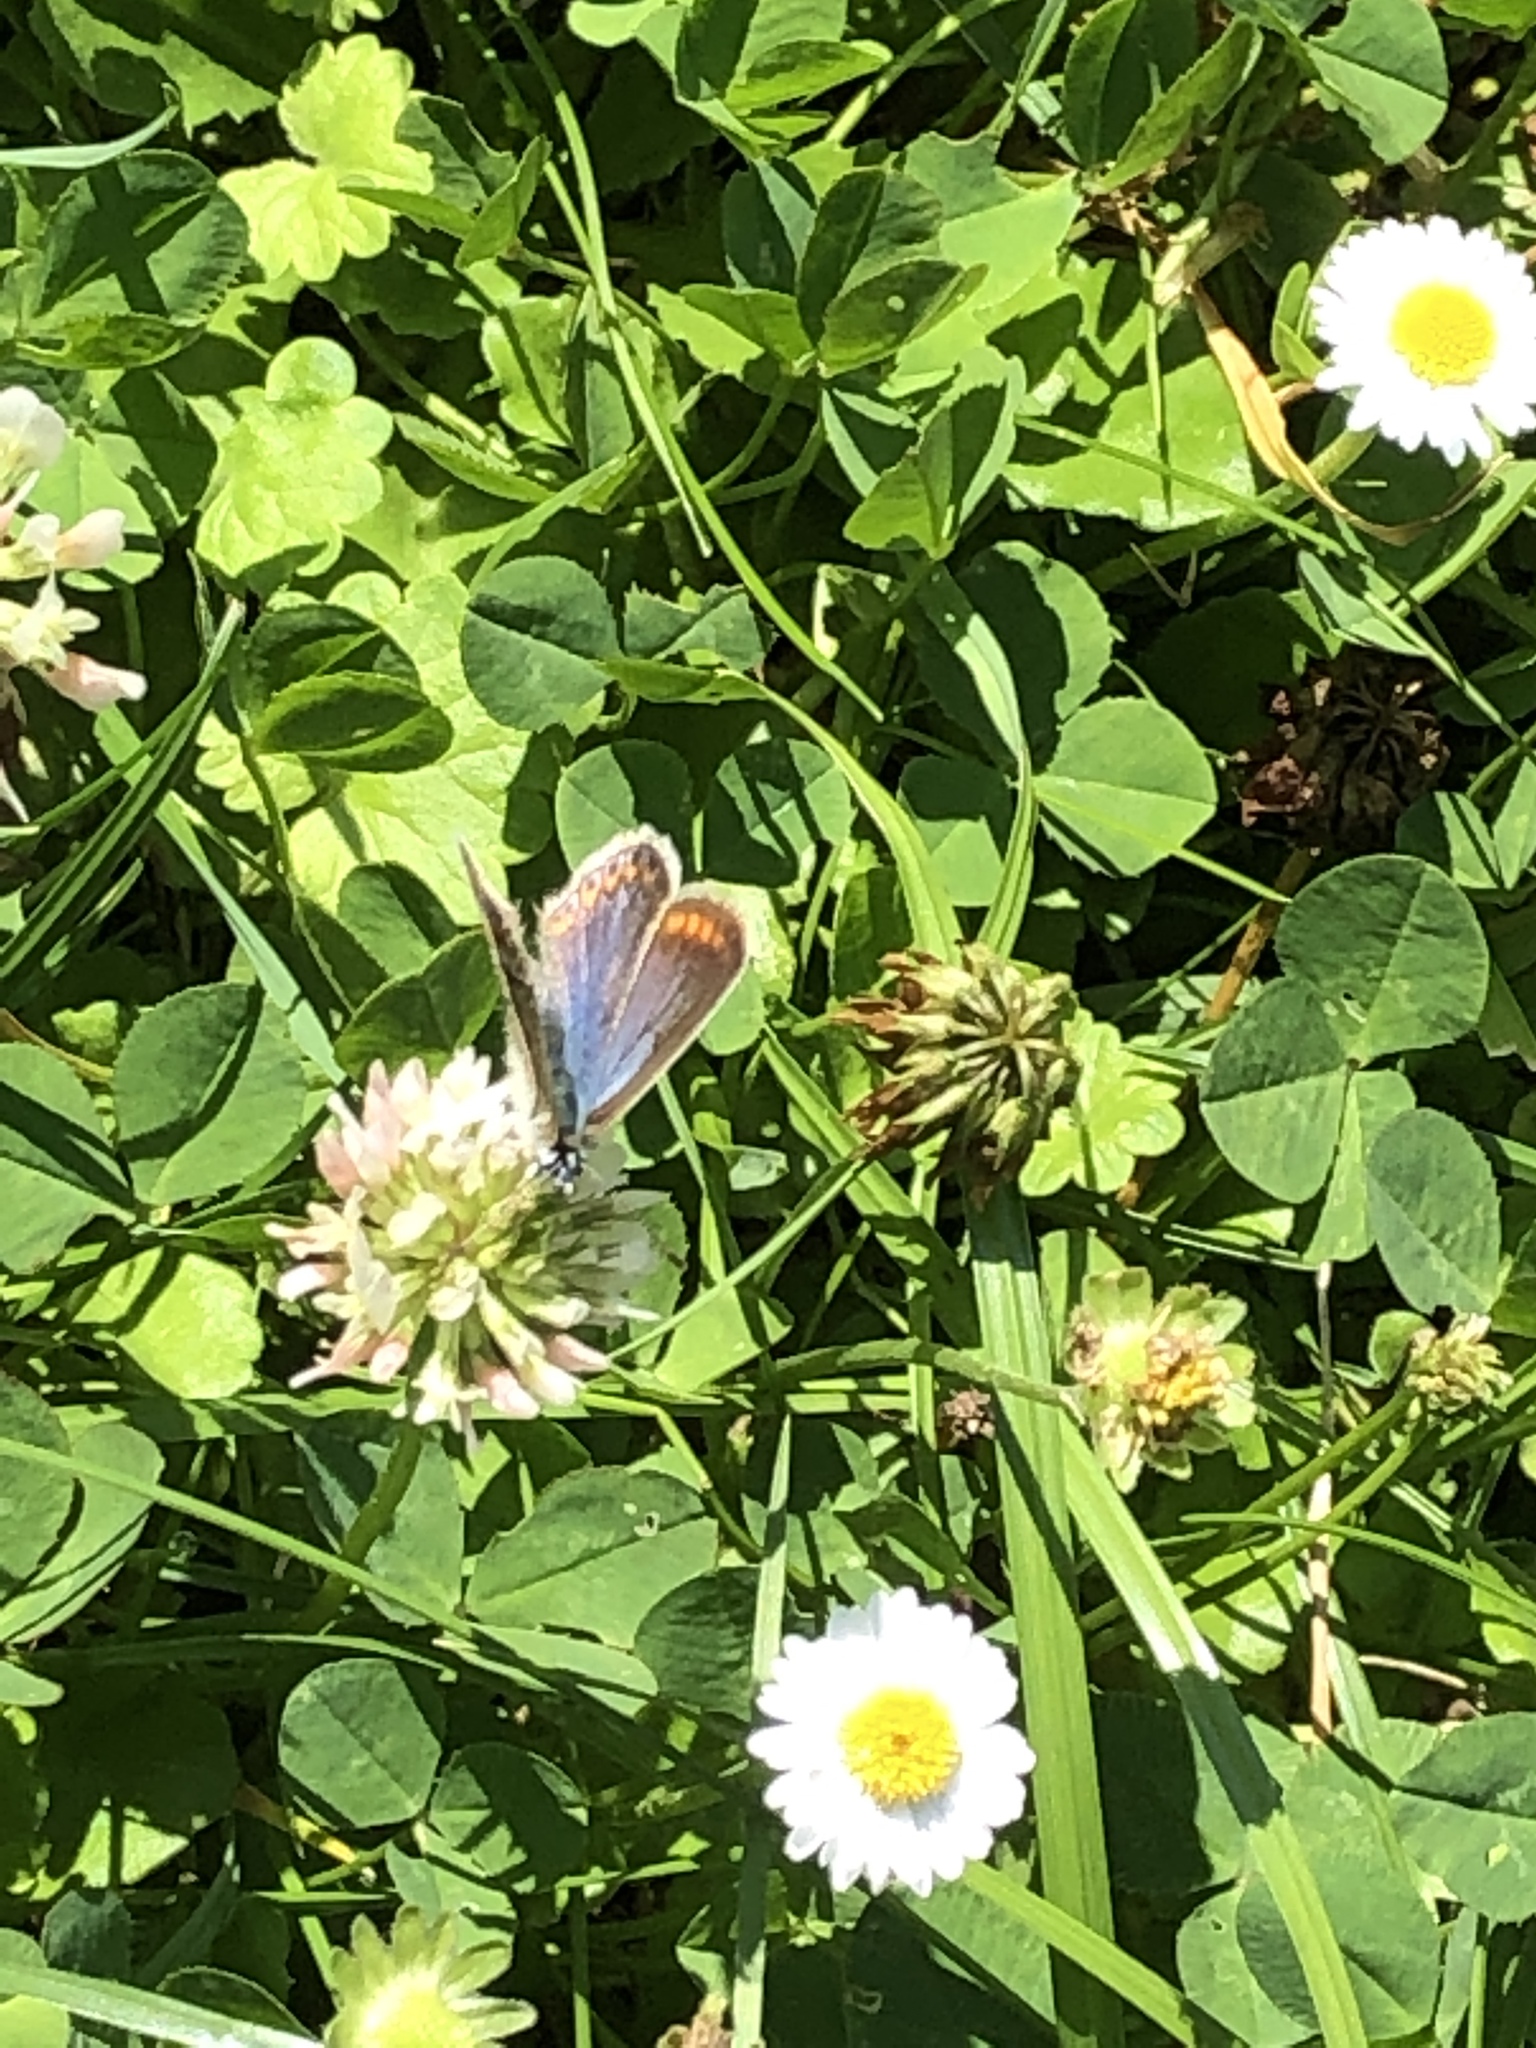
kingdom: Animalia
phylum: Arthropoda
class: Insecta
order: Lepidoptera
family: Lycaenidae
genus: Polyommatus
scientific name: Polyommatus icarus
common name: Common blue
